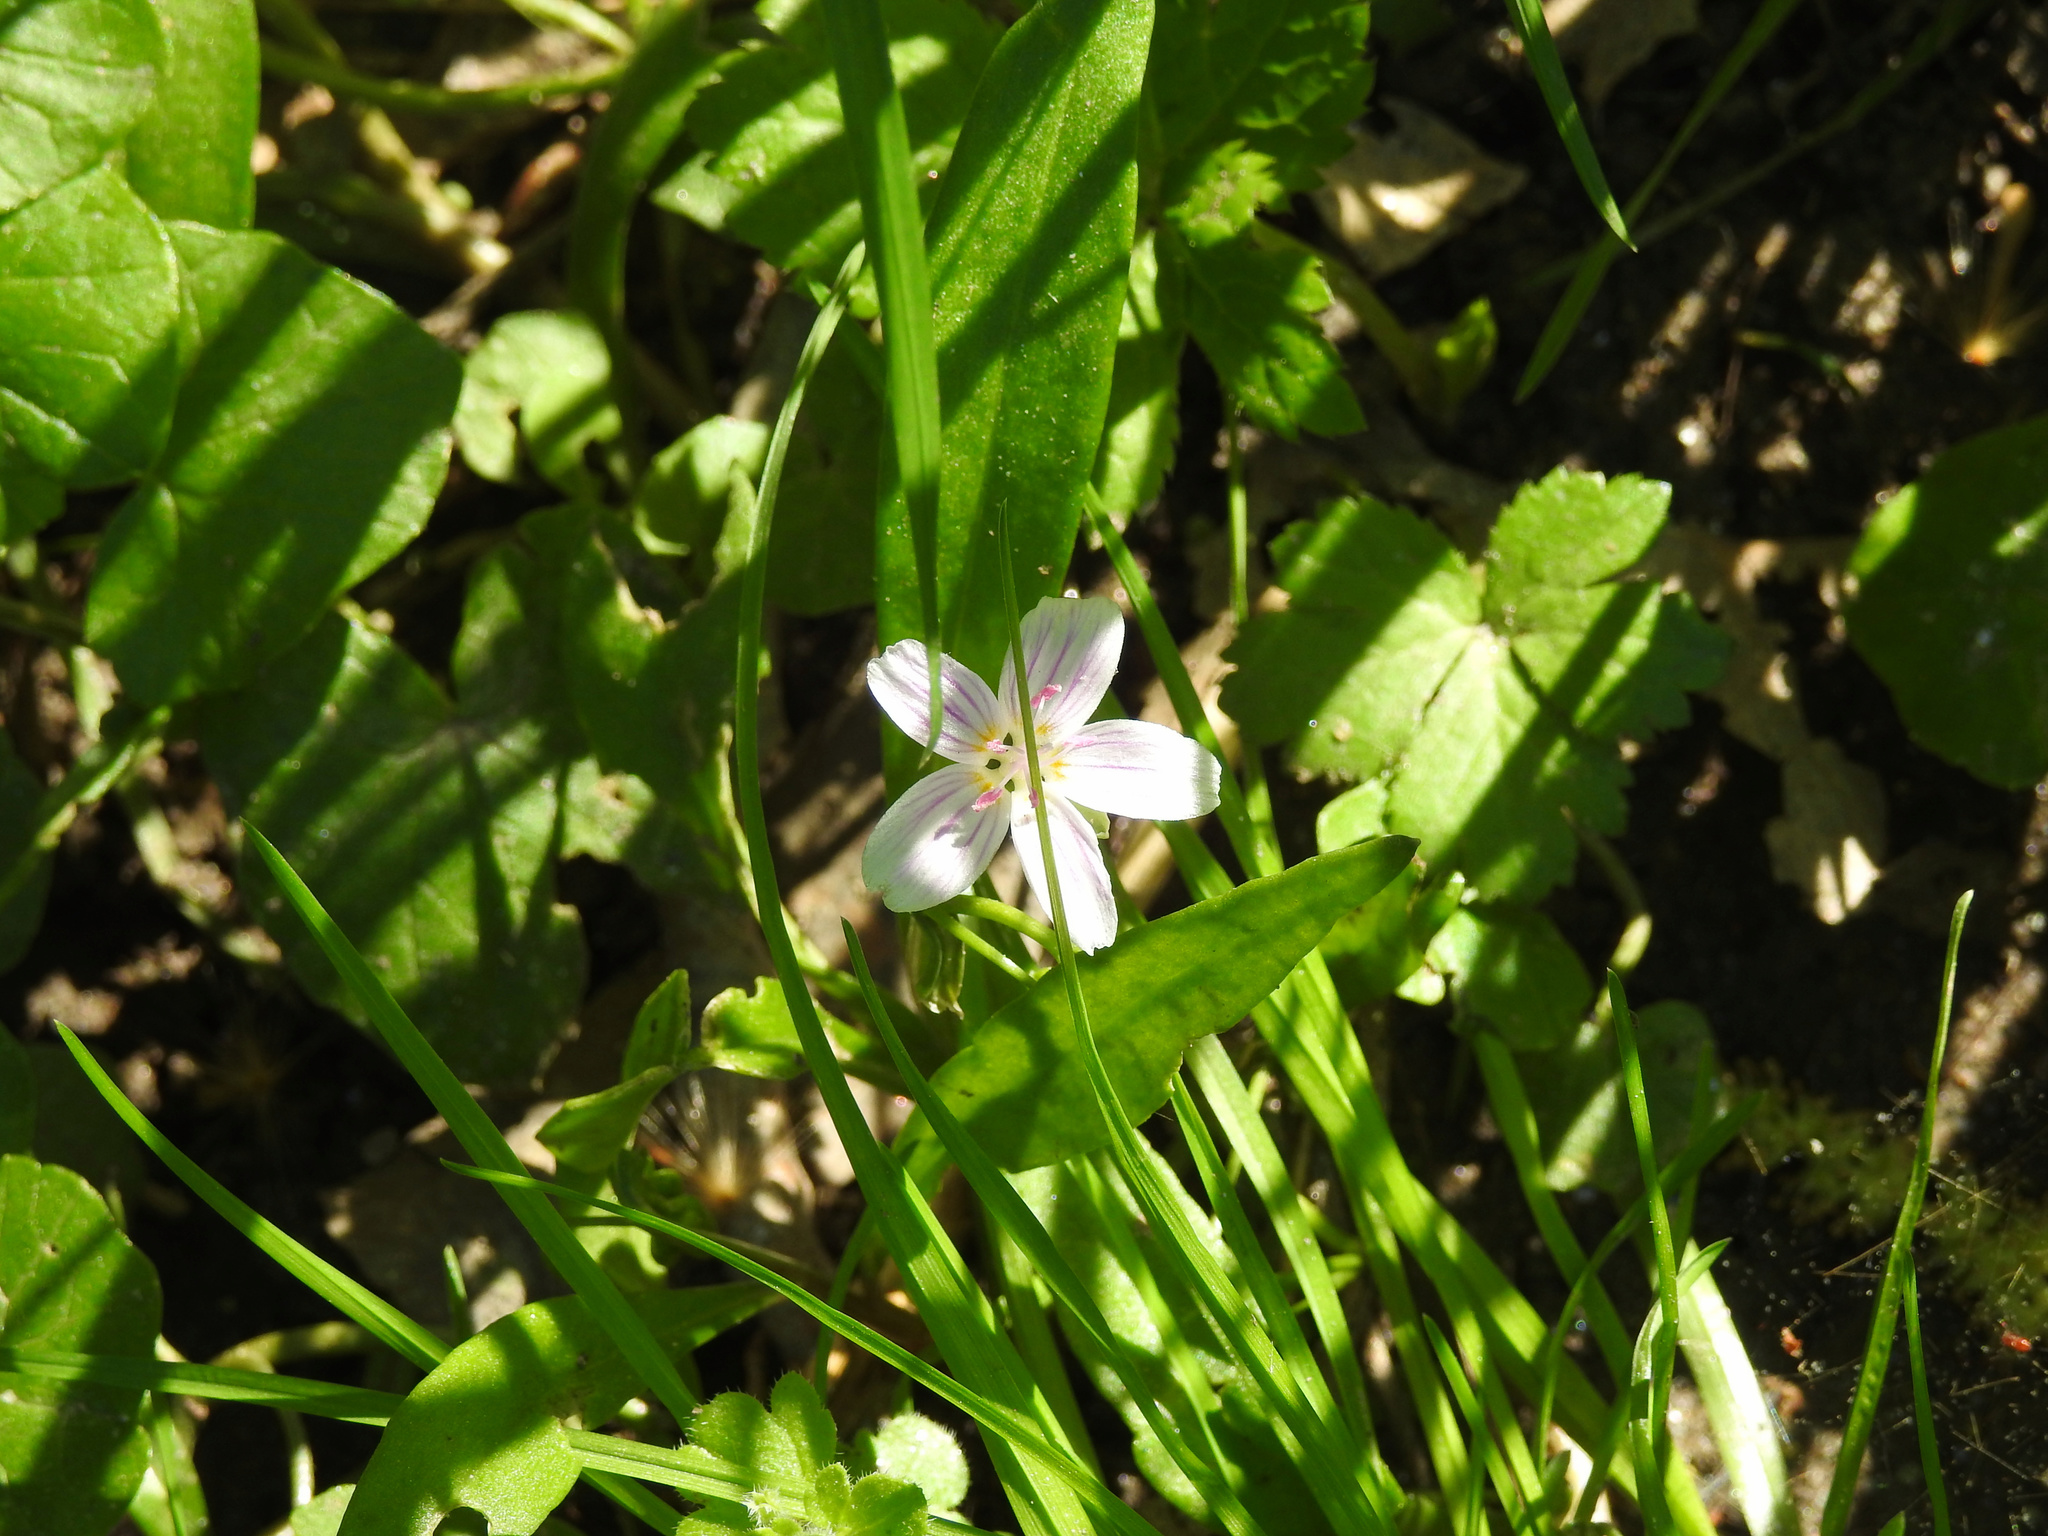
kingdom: Plantae
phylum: Tracheophyta
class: Magnoliopsida
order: Caryophyllales
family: Montiaceae
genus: Claytonia
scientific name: Claytonia virginica
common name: Virginia springbeauty
